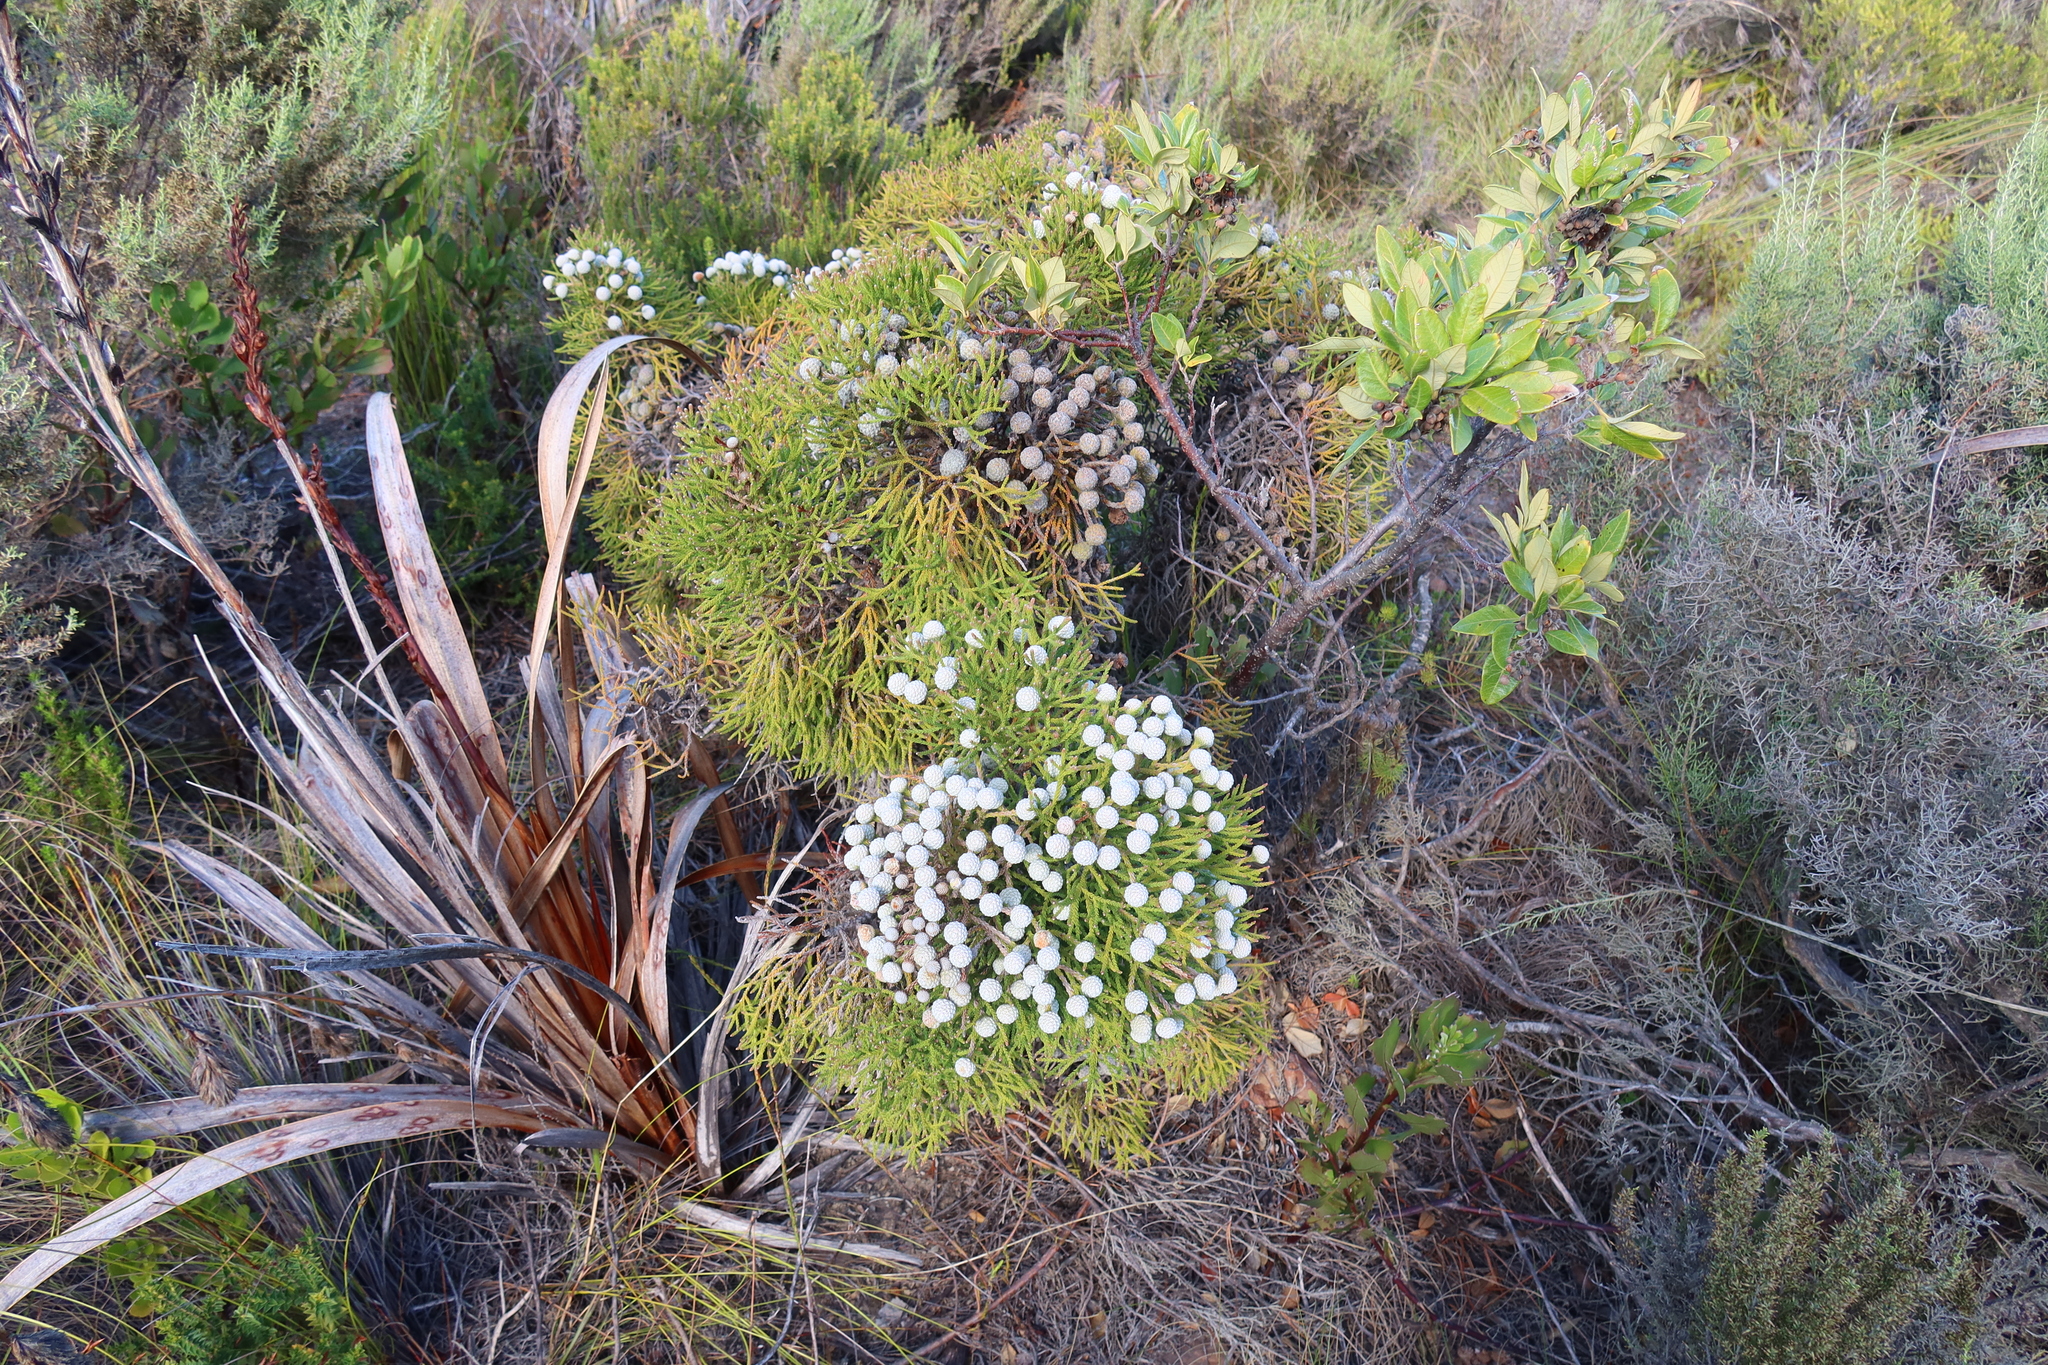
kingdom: Plantae
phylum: Tracheophyta
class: Magnoliopsida
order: Bruniales
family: Bruniaceae
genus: Brunia
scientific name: Brunia noduliflora
